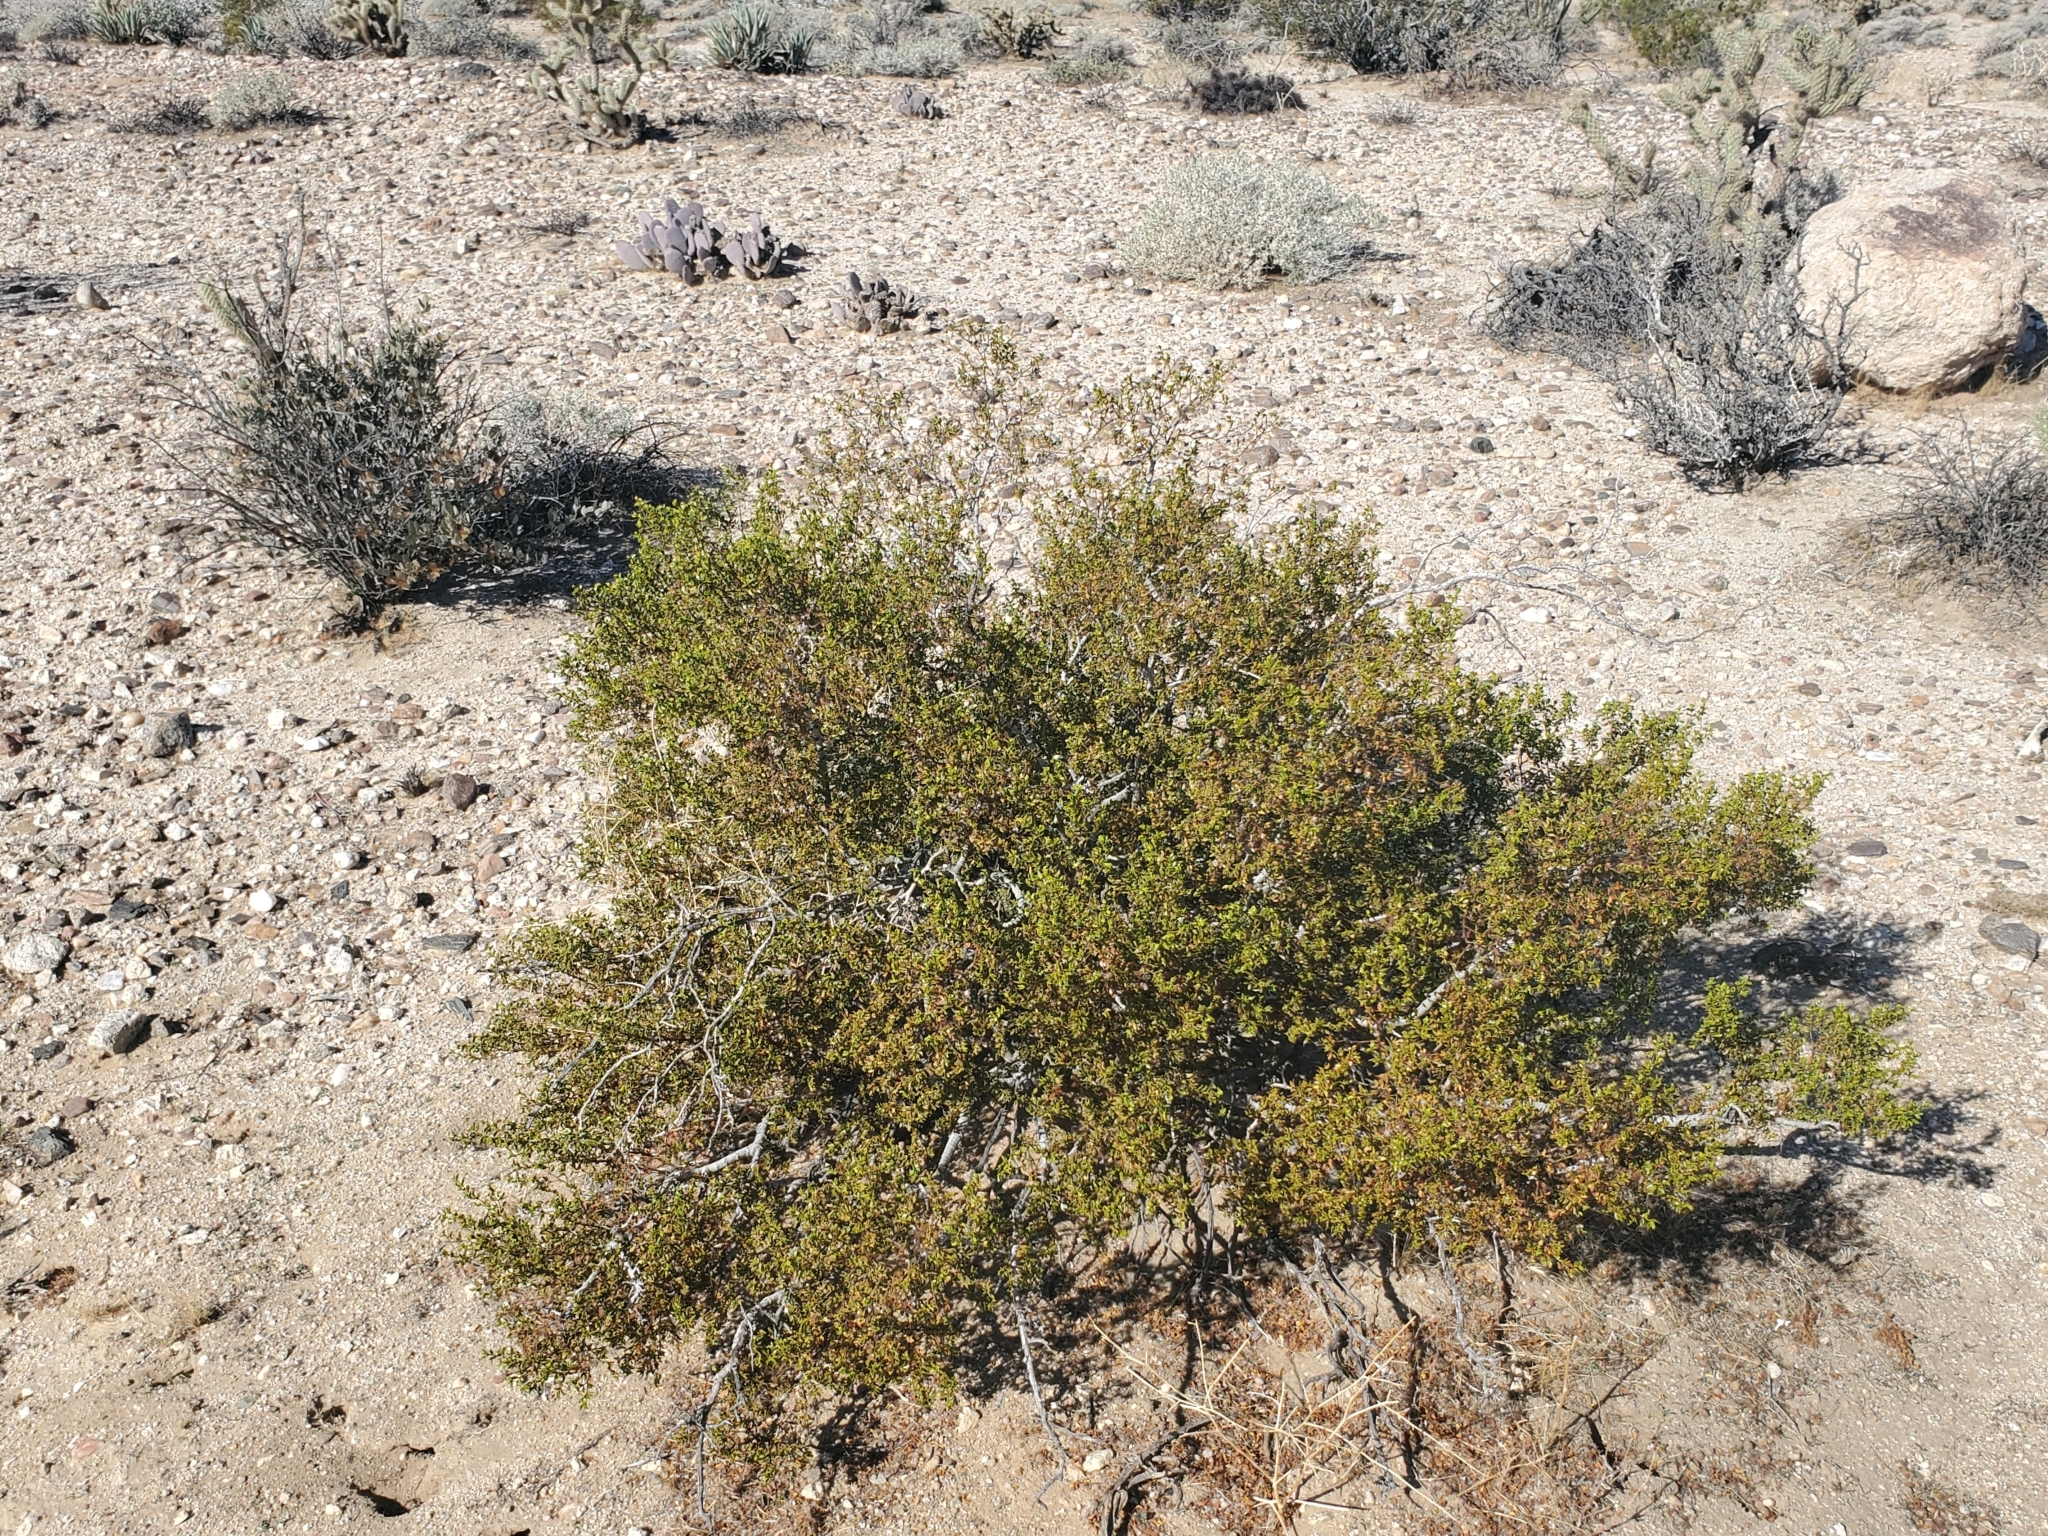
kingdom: Plantae
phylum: Tracheophyta
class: Magnoliopsida
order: Zygophyllales
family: Zygophyllaceae
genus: Larrea
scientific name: Larrea tridentata
